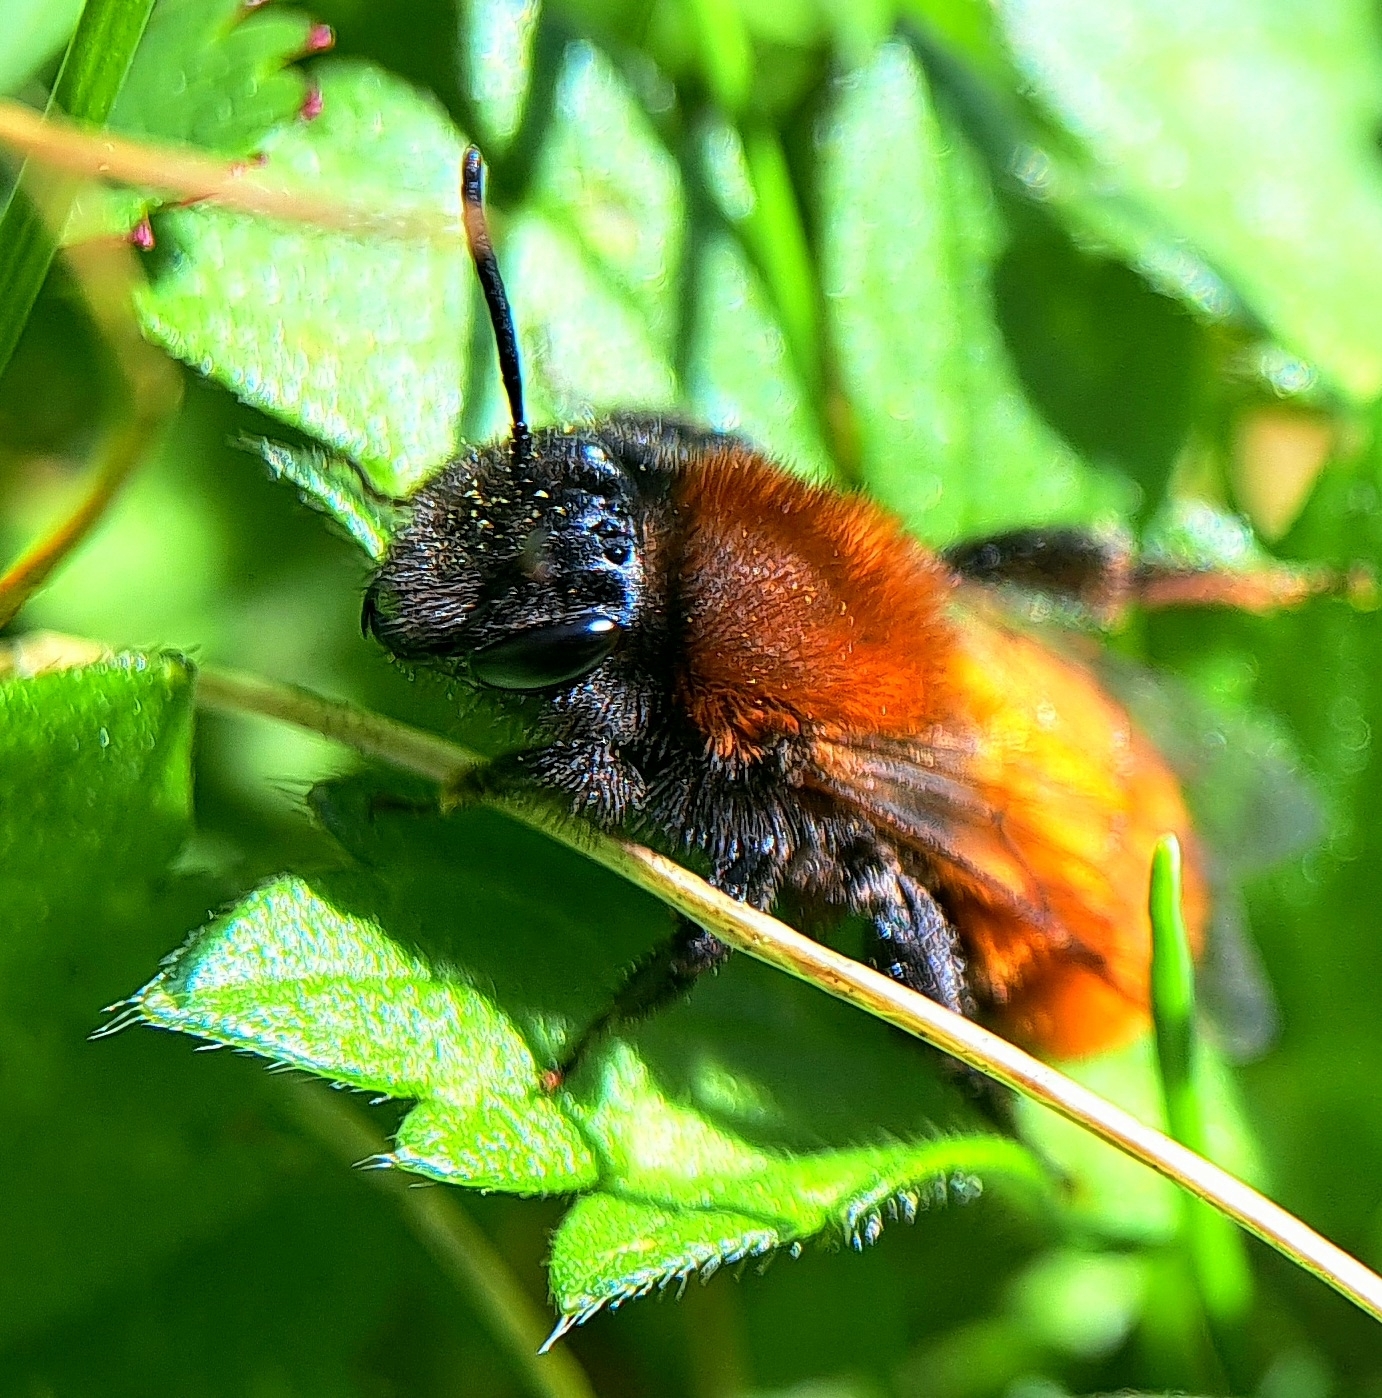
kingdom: Animalia
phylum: Arthropoda
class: Insecta
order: Hymenoptera
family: Andrenidae
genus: Andrena
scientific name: Andrena fulva
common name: Tawny mining bee
